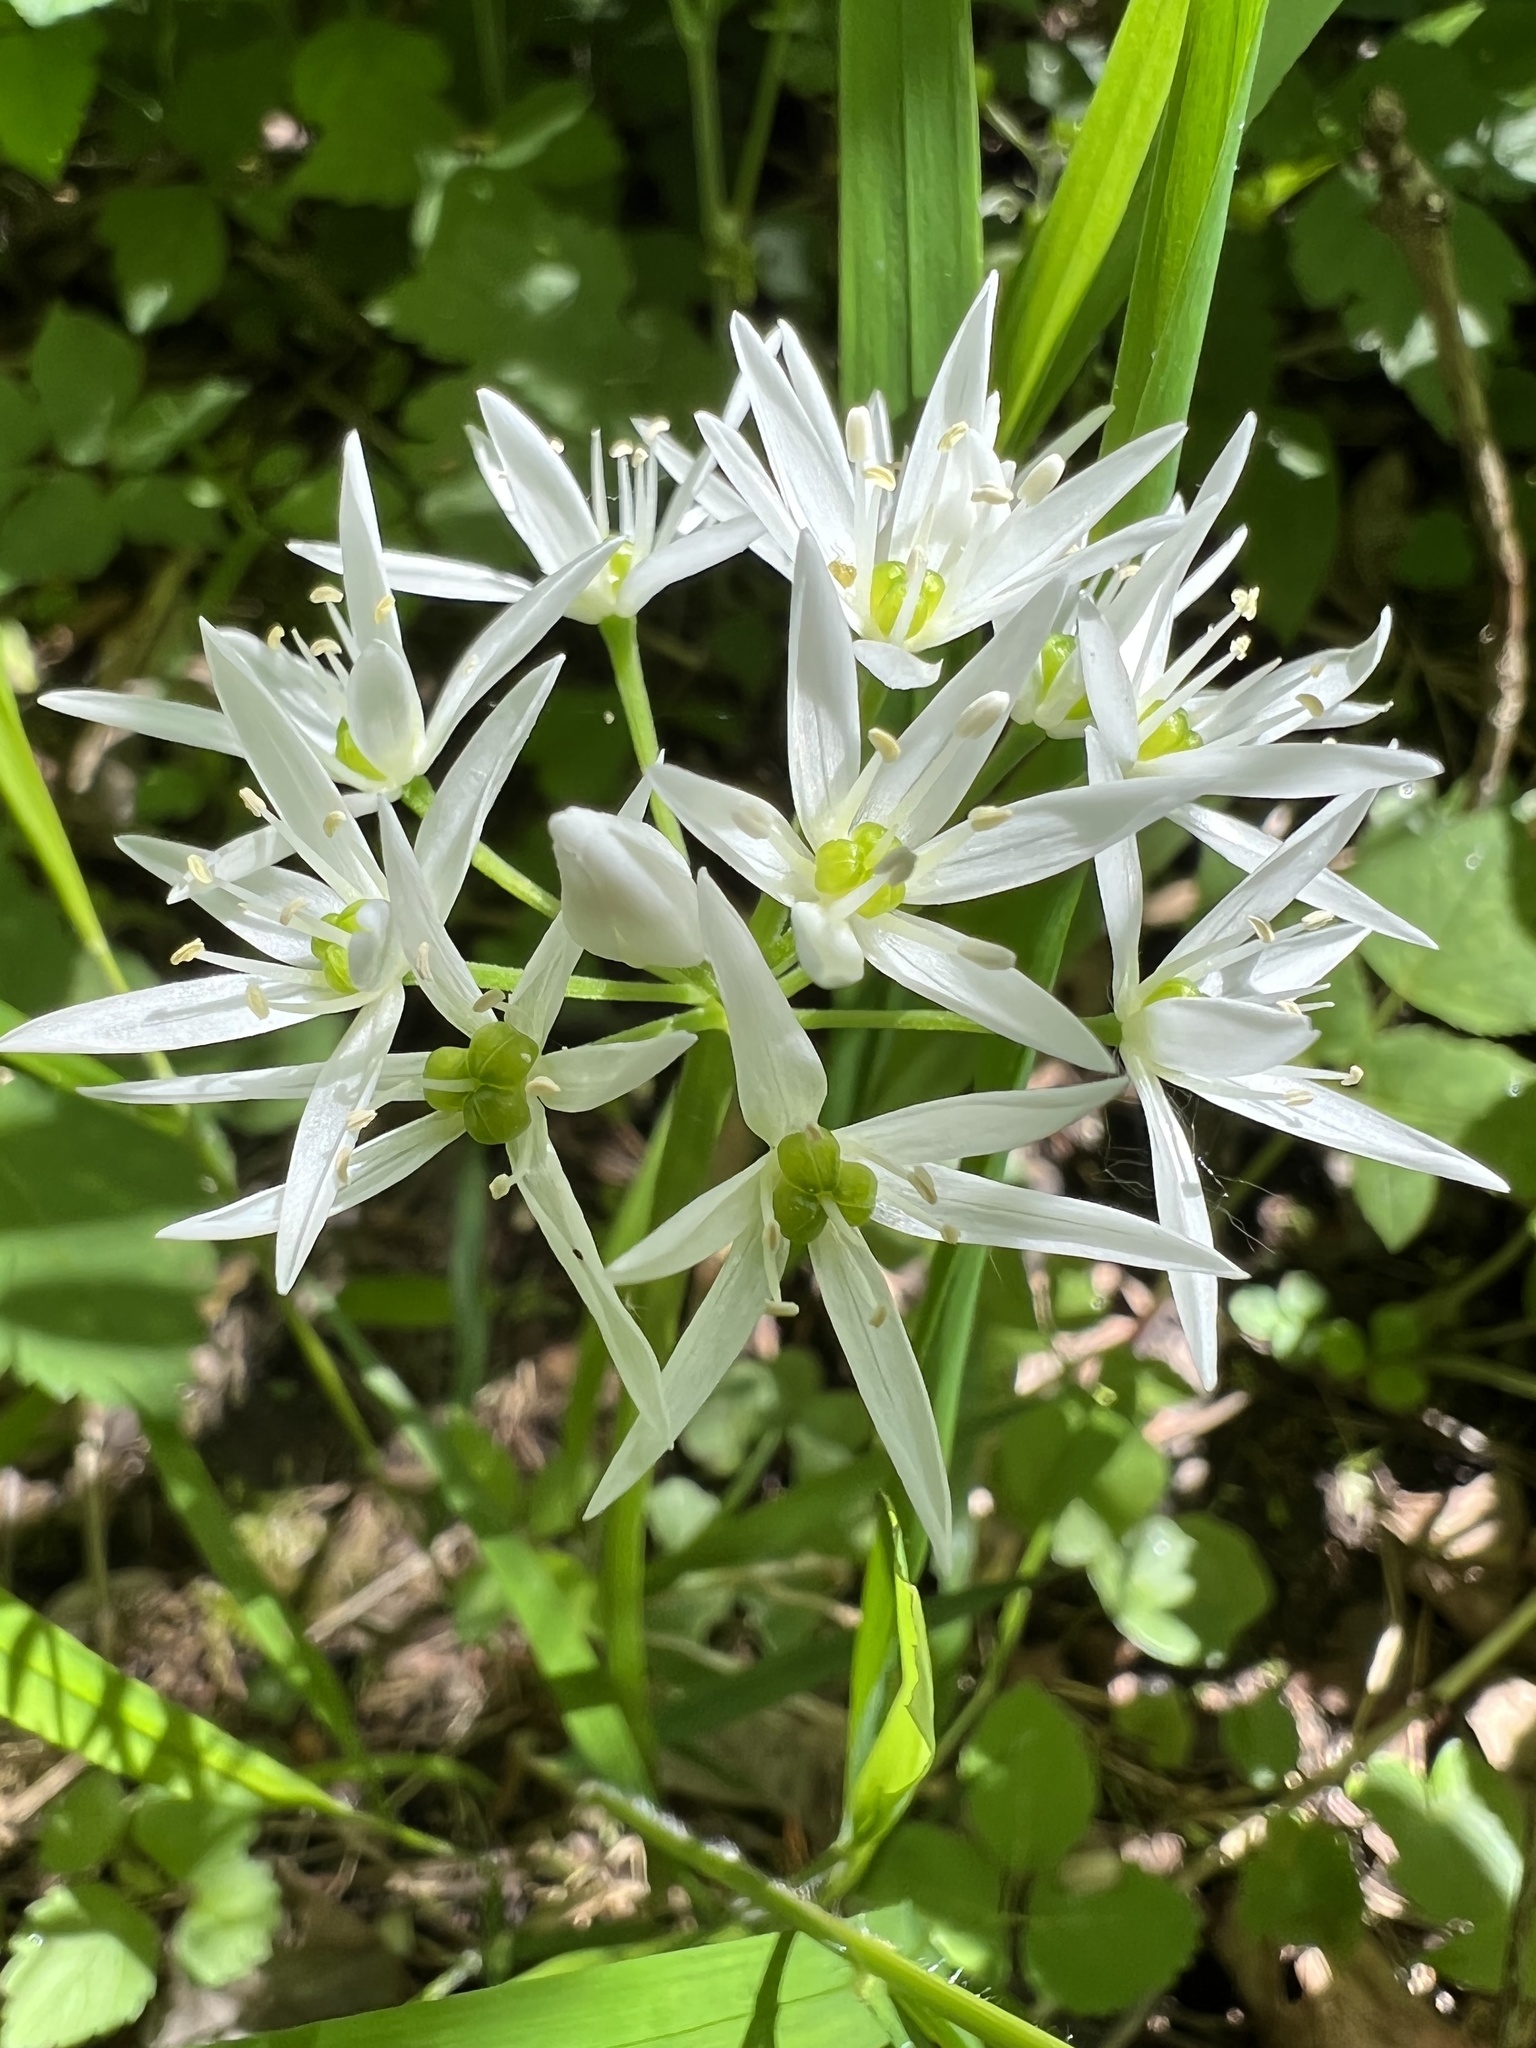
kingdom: Plantae
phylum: Tracheophyta
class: Liliopsida
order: Asparagales
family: Amaryllidaceae
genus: Allium
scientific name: Allium ursinum
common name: Ramsons
